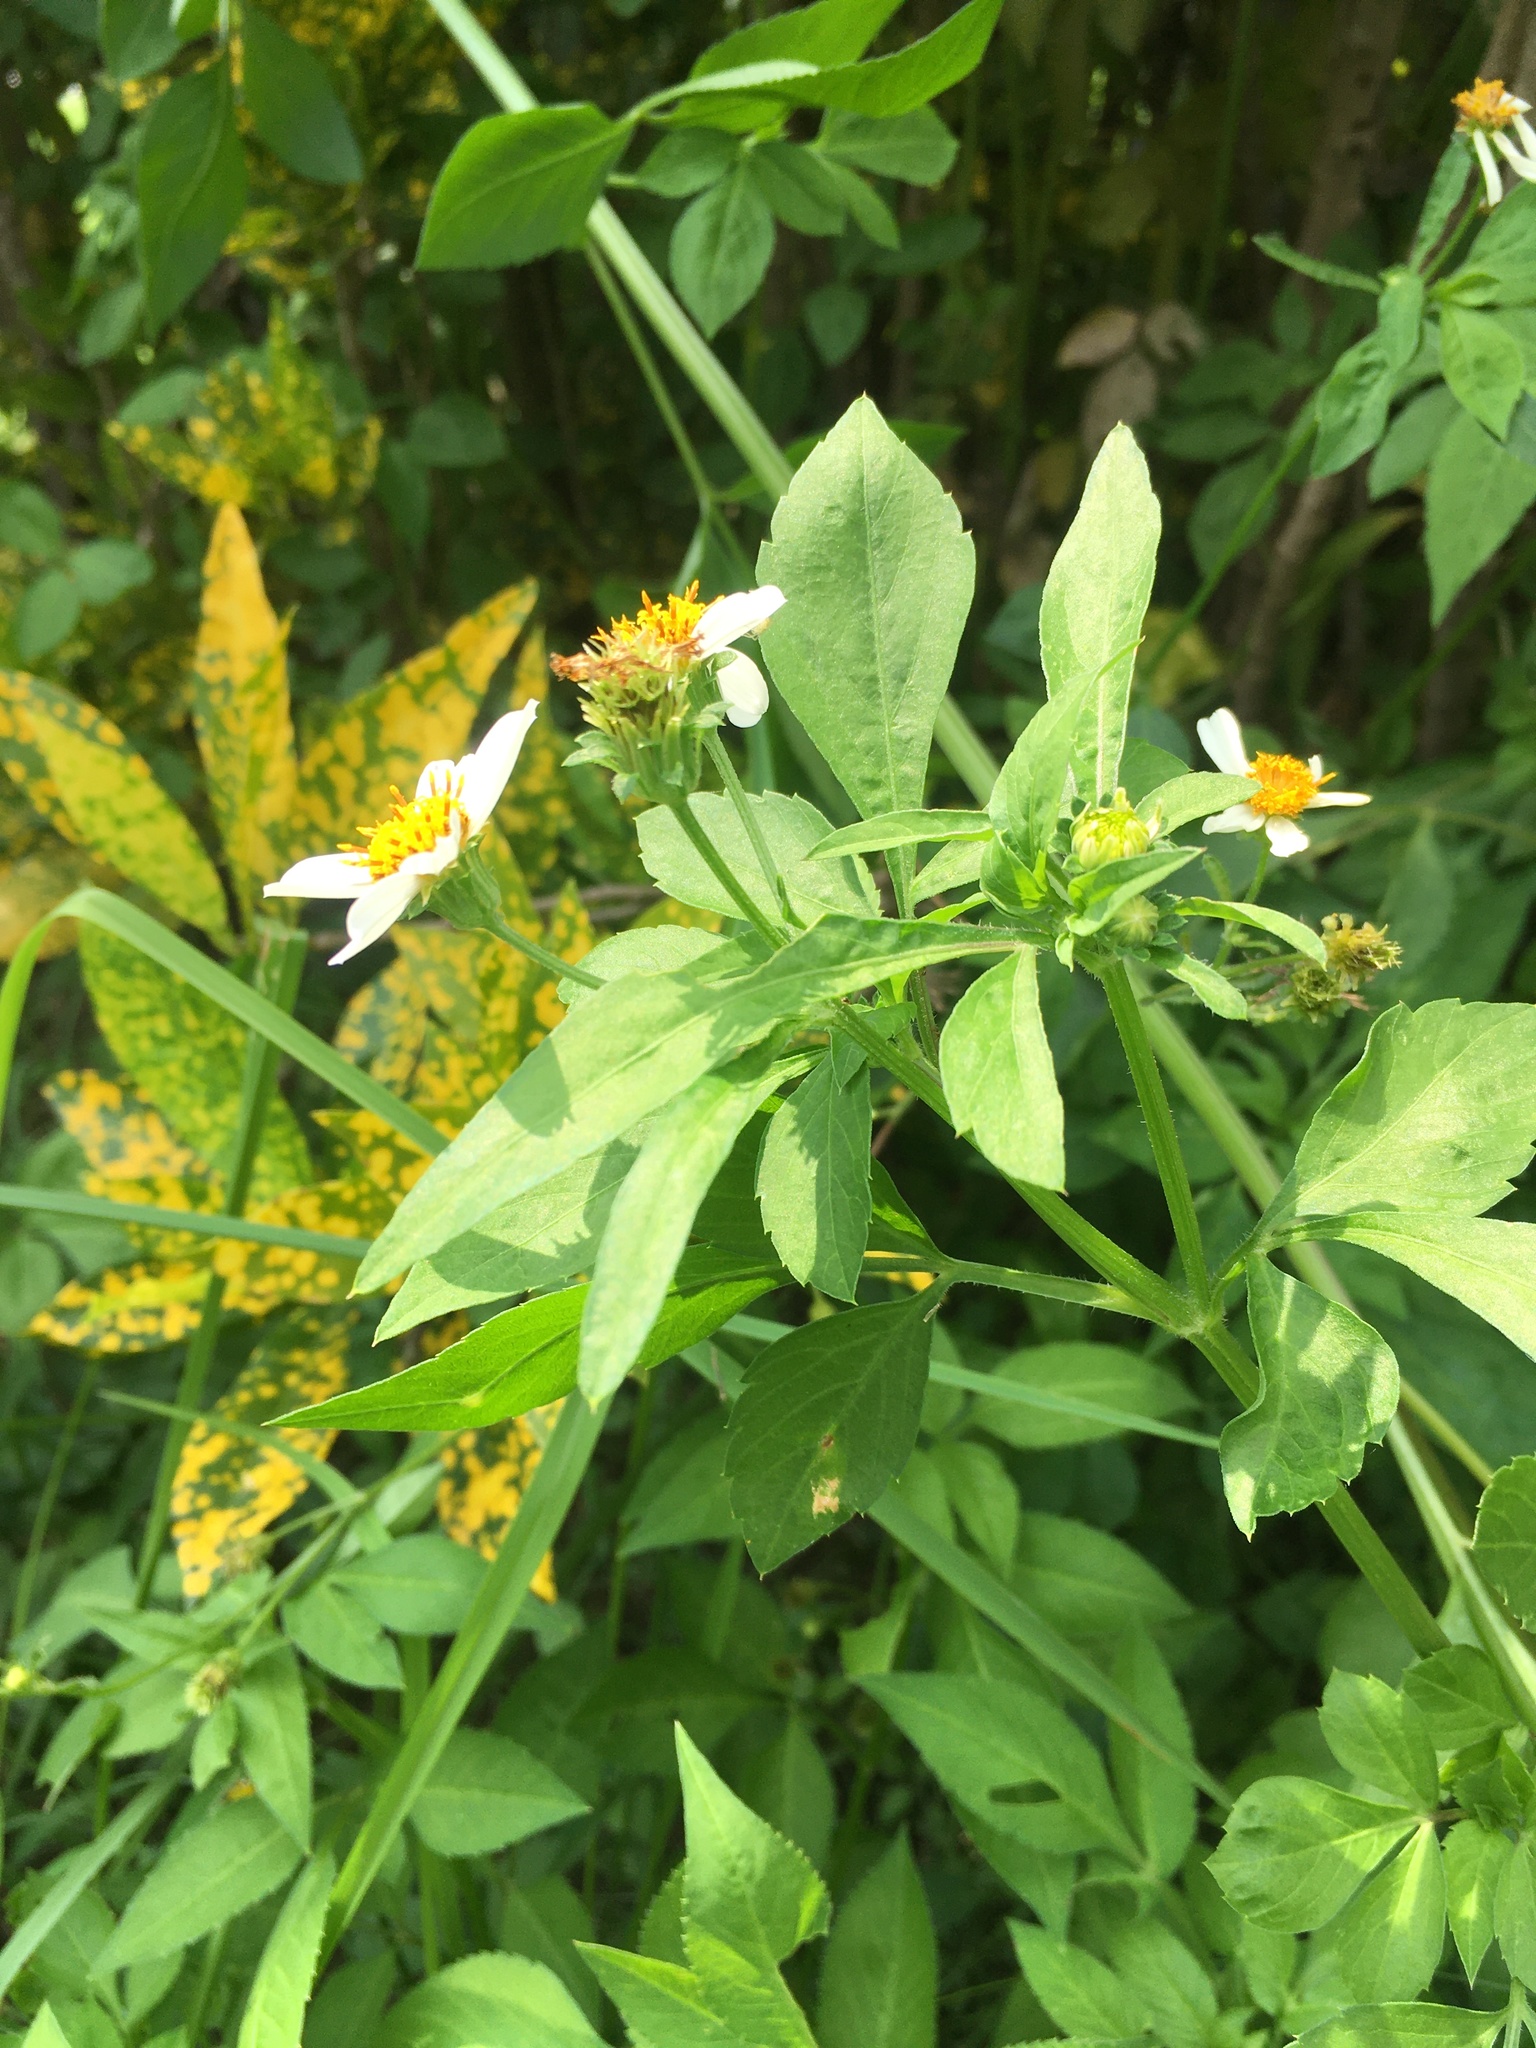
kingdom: Plantae
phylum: Tracheophyta
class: Magnoliopsida
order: Asterales
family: Asteraceae
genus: Bidens
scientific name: Bidens alba
